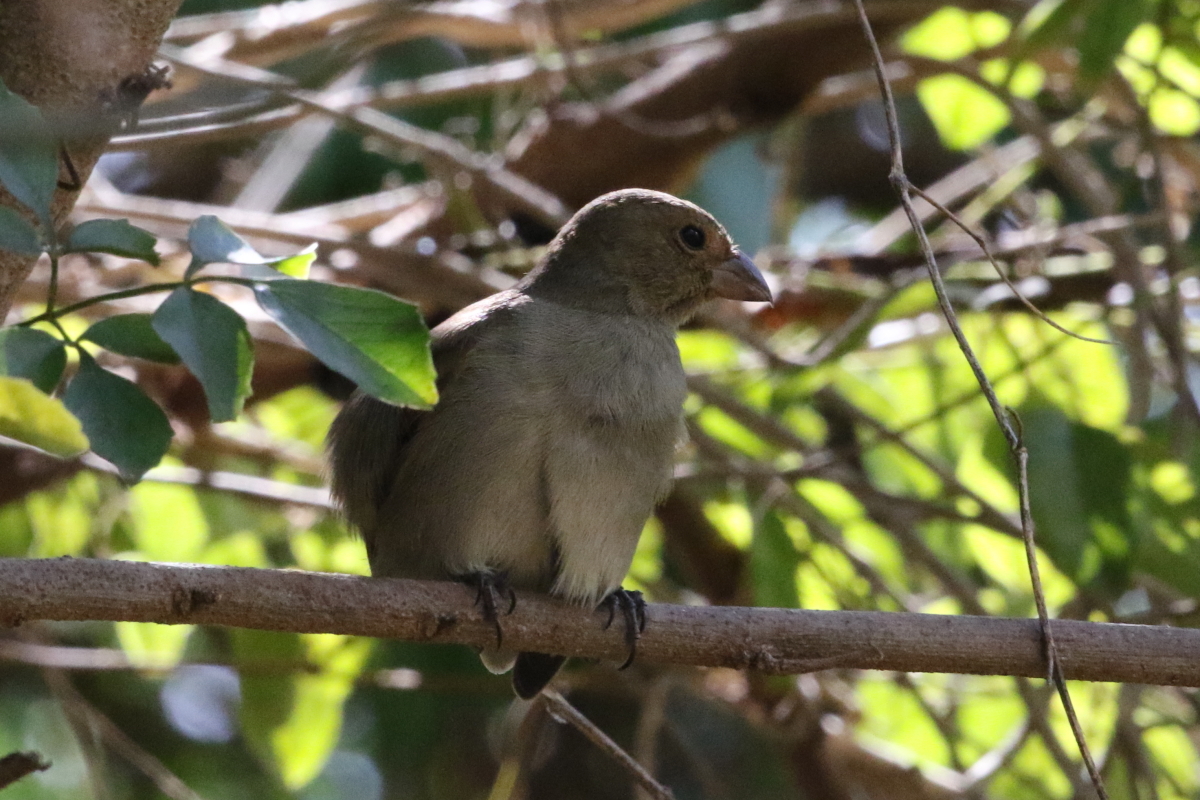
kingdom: Animalia
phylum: Chordata
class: Aves
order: Passeriformes
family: Thraupidae
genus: Loxigilla
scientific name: Loxigilla noctis
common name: Lesser antillean bullfinch
